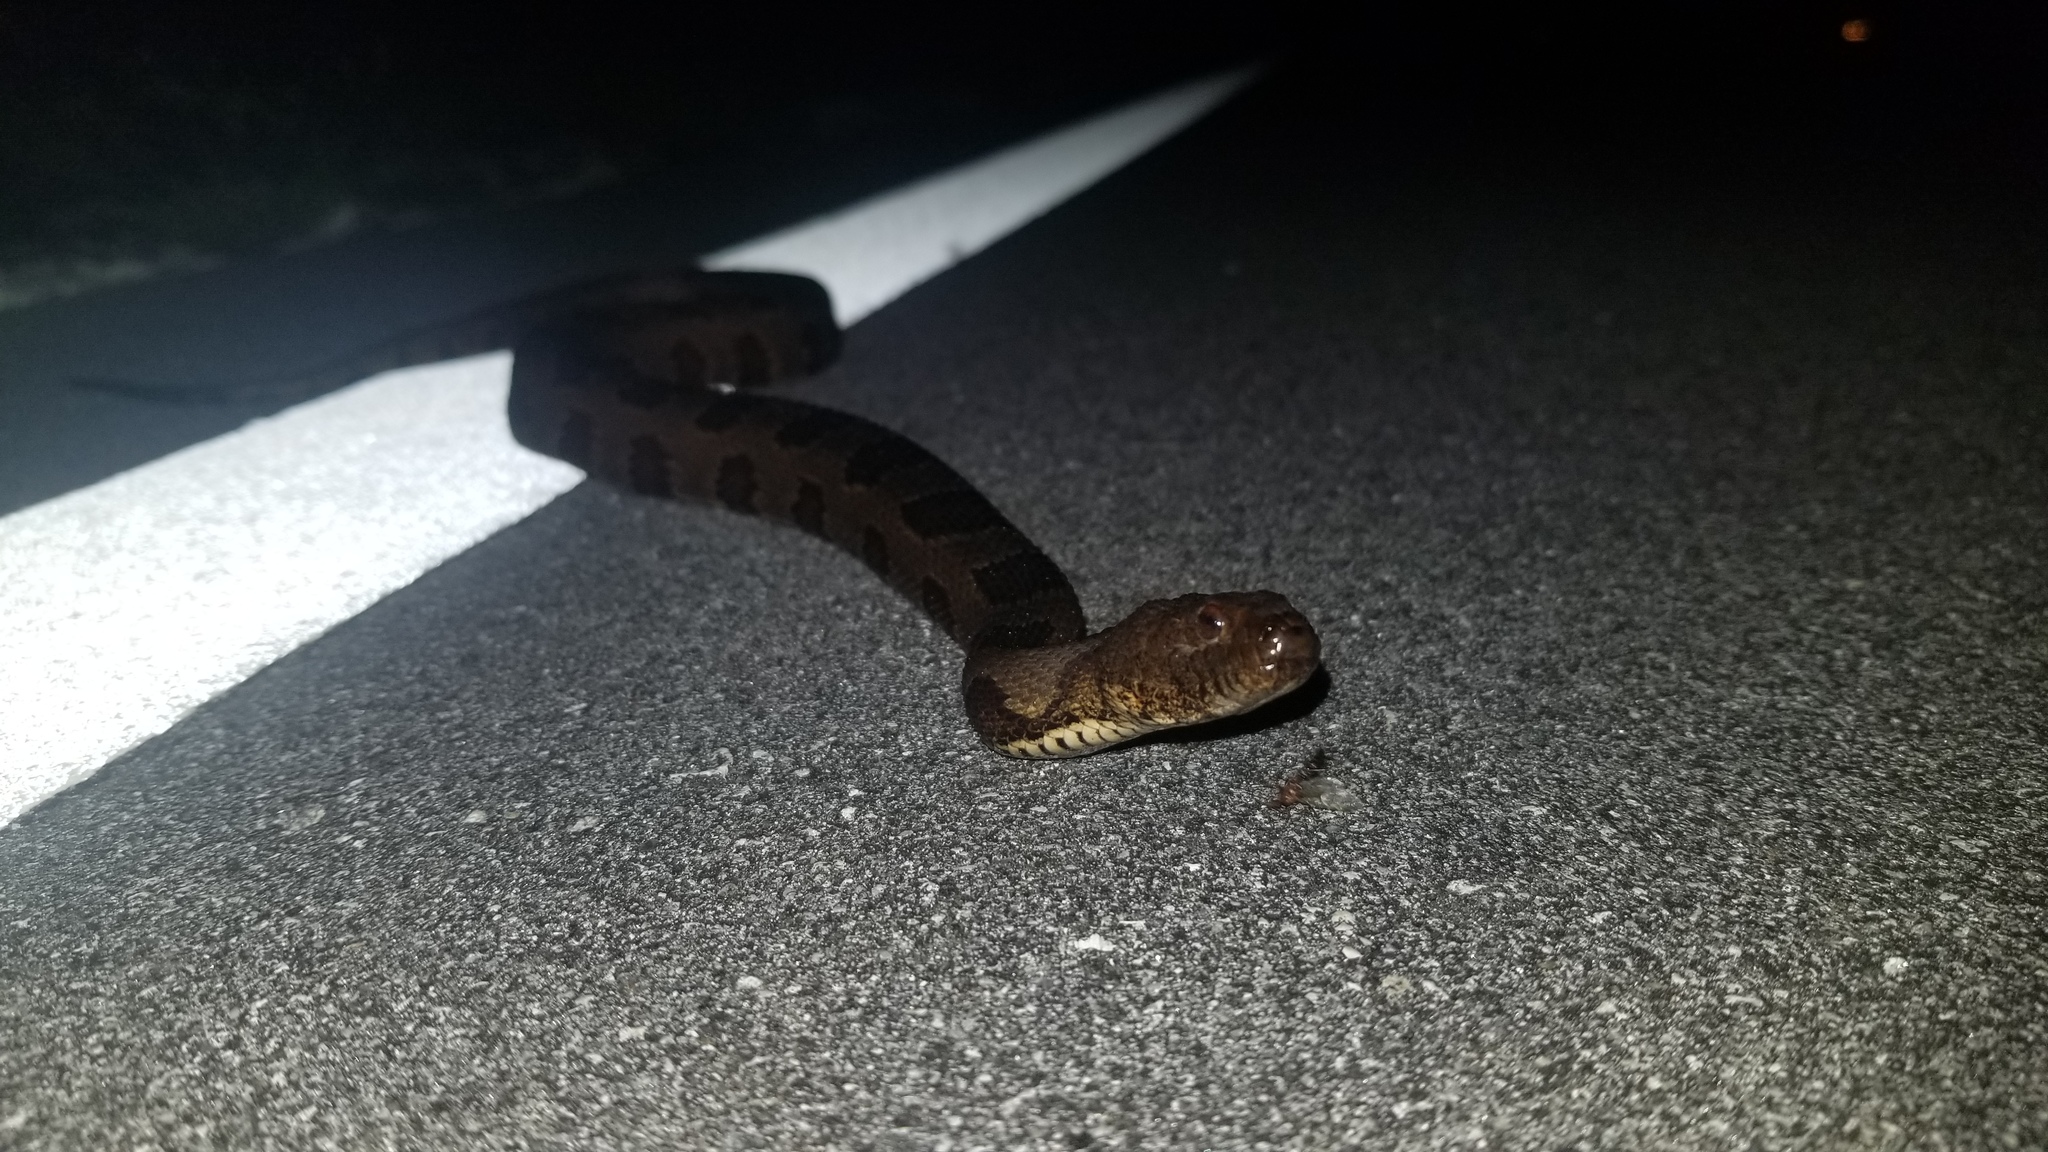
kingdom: Animalia
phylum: Chordata
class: Squamata
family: Colubridae
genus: Nerodia
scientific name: Nerodia taxispilota
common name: Brown water snake
